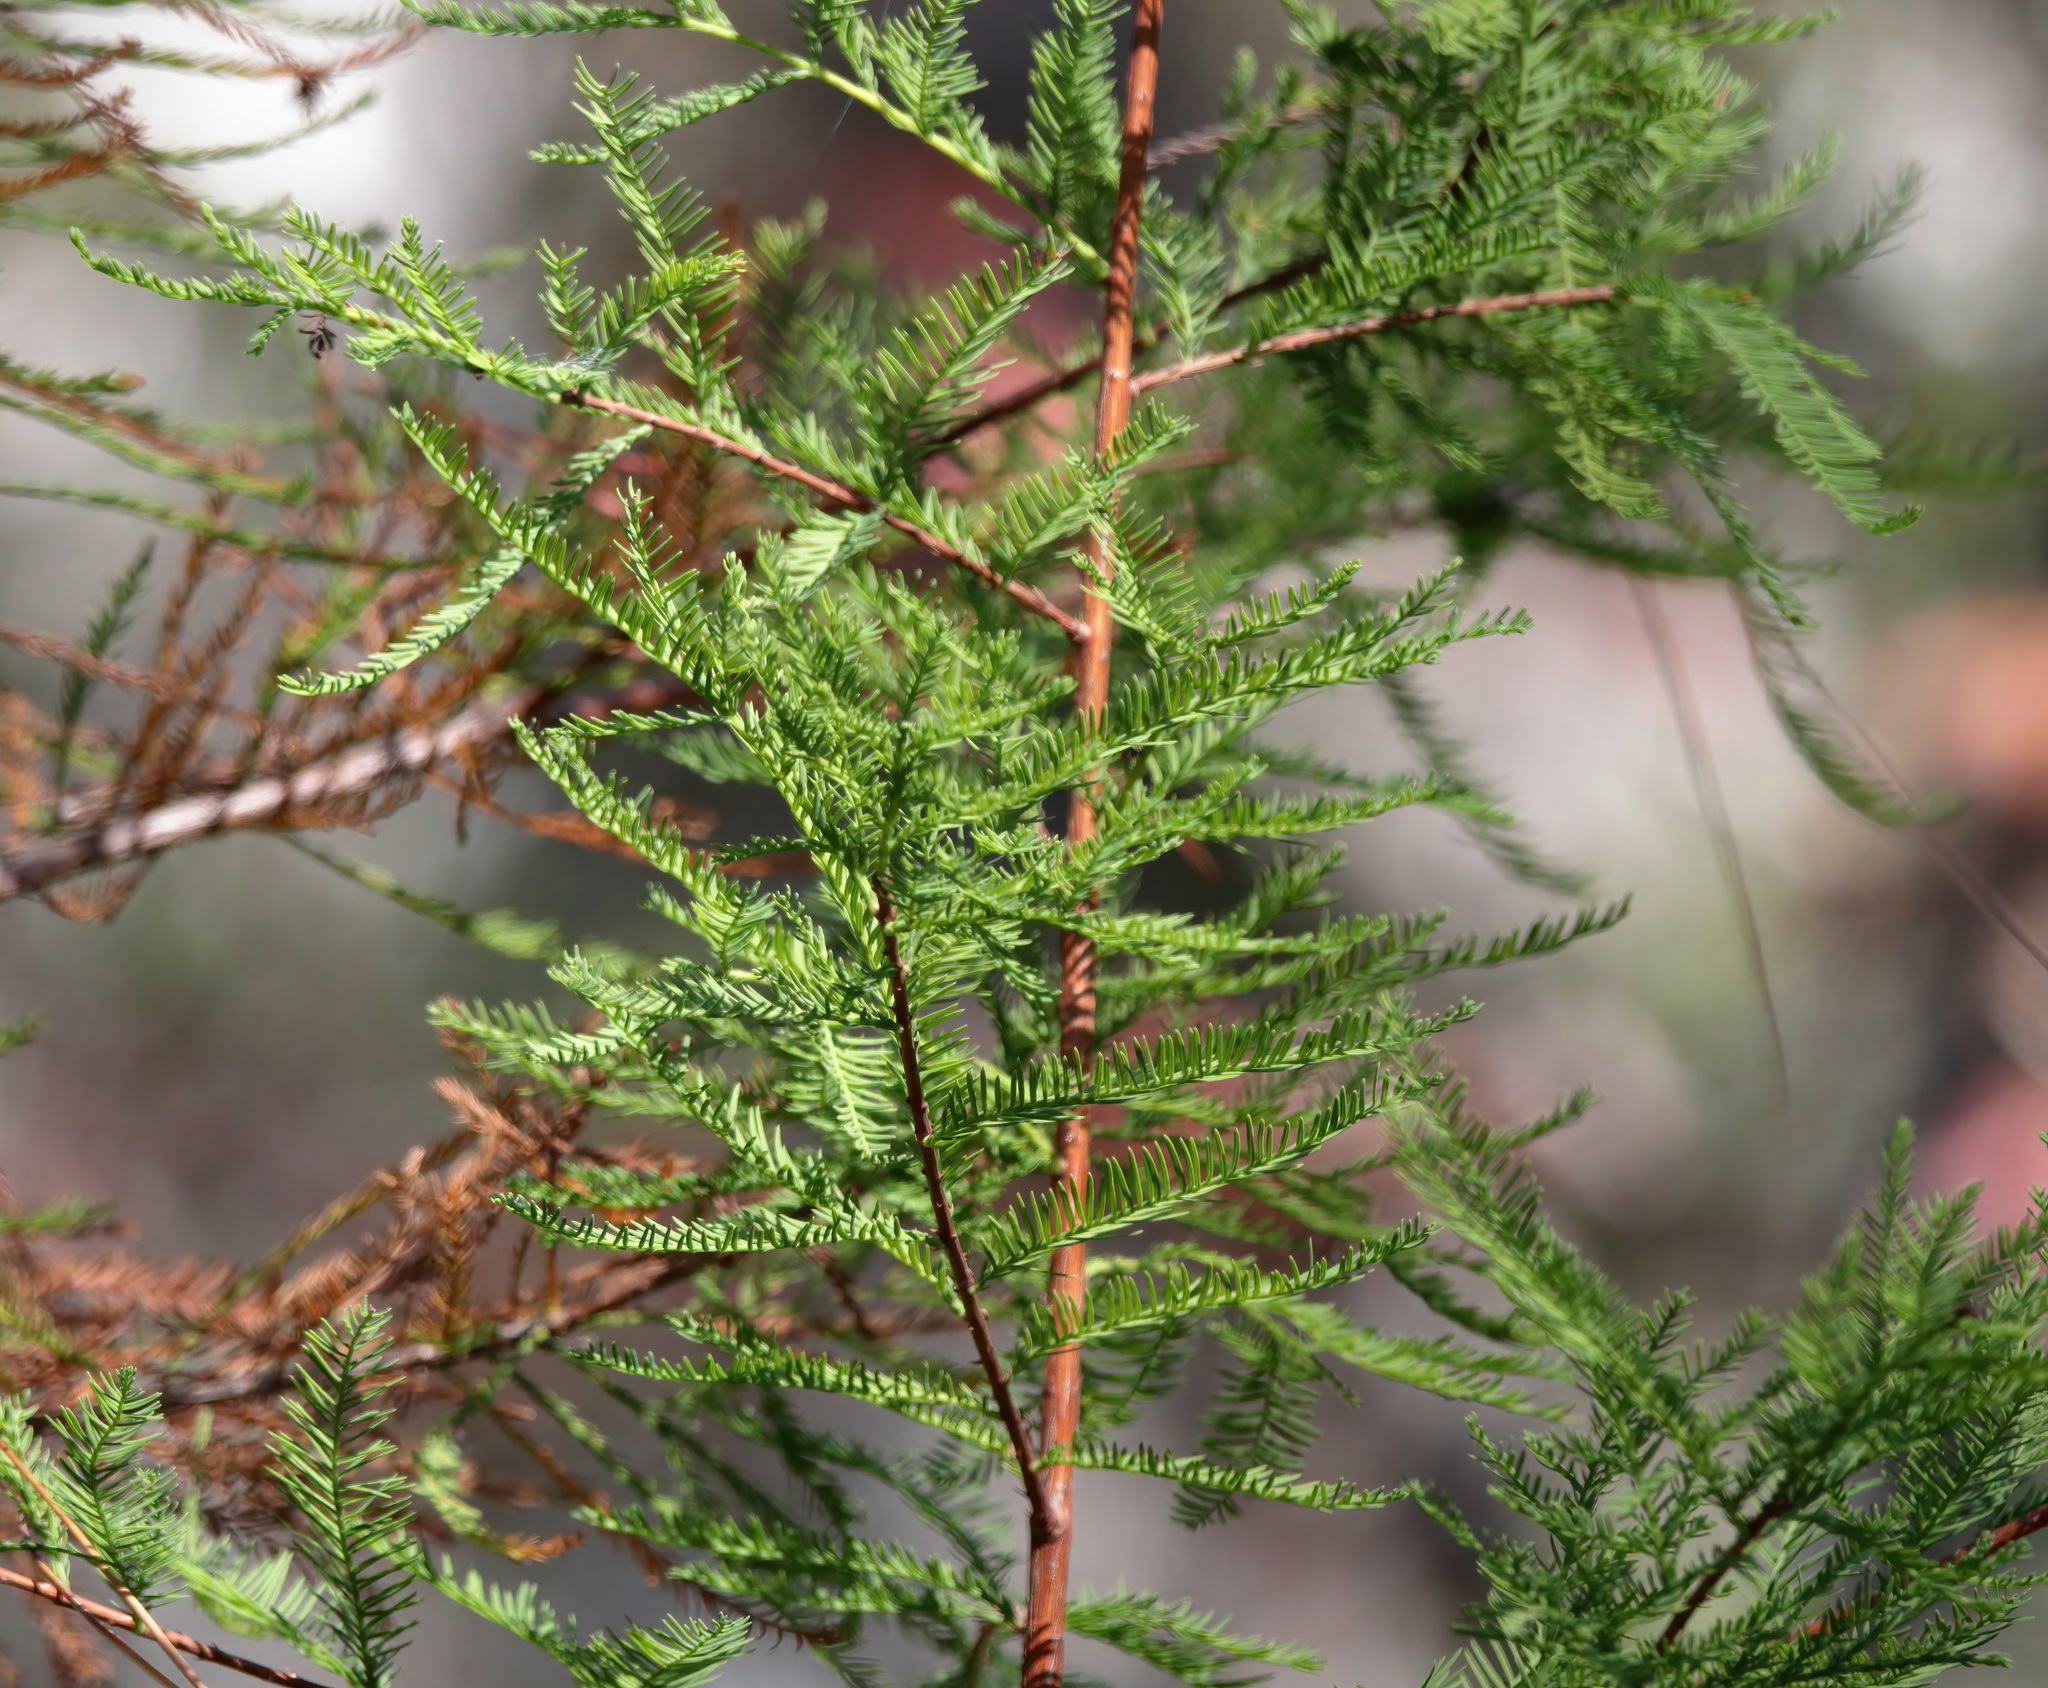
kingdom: Plantae
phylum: Tracheophyta
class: Pinopsida
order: Pinales
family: Cupressaceae
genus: Taxodium
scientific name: Taxodium distichum
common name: Bald cypress
